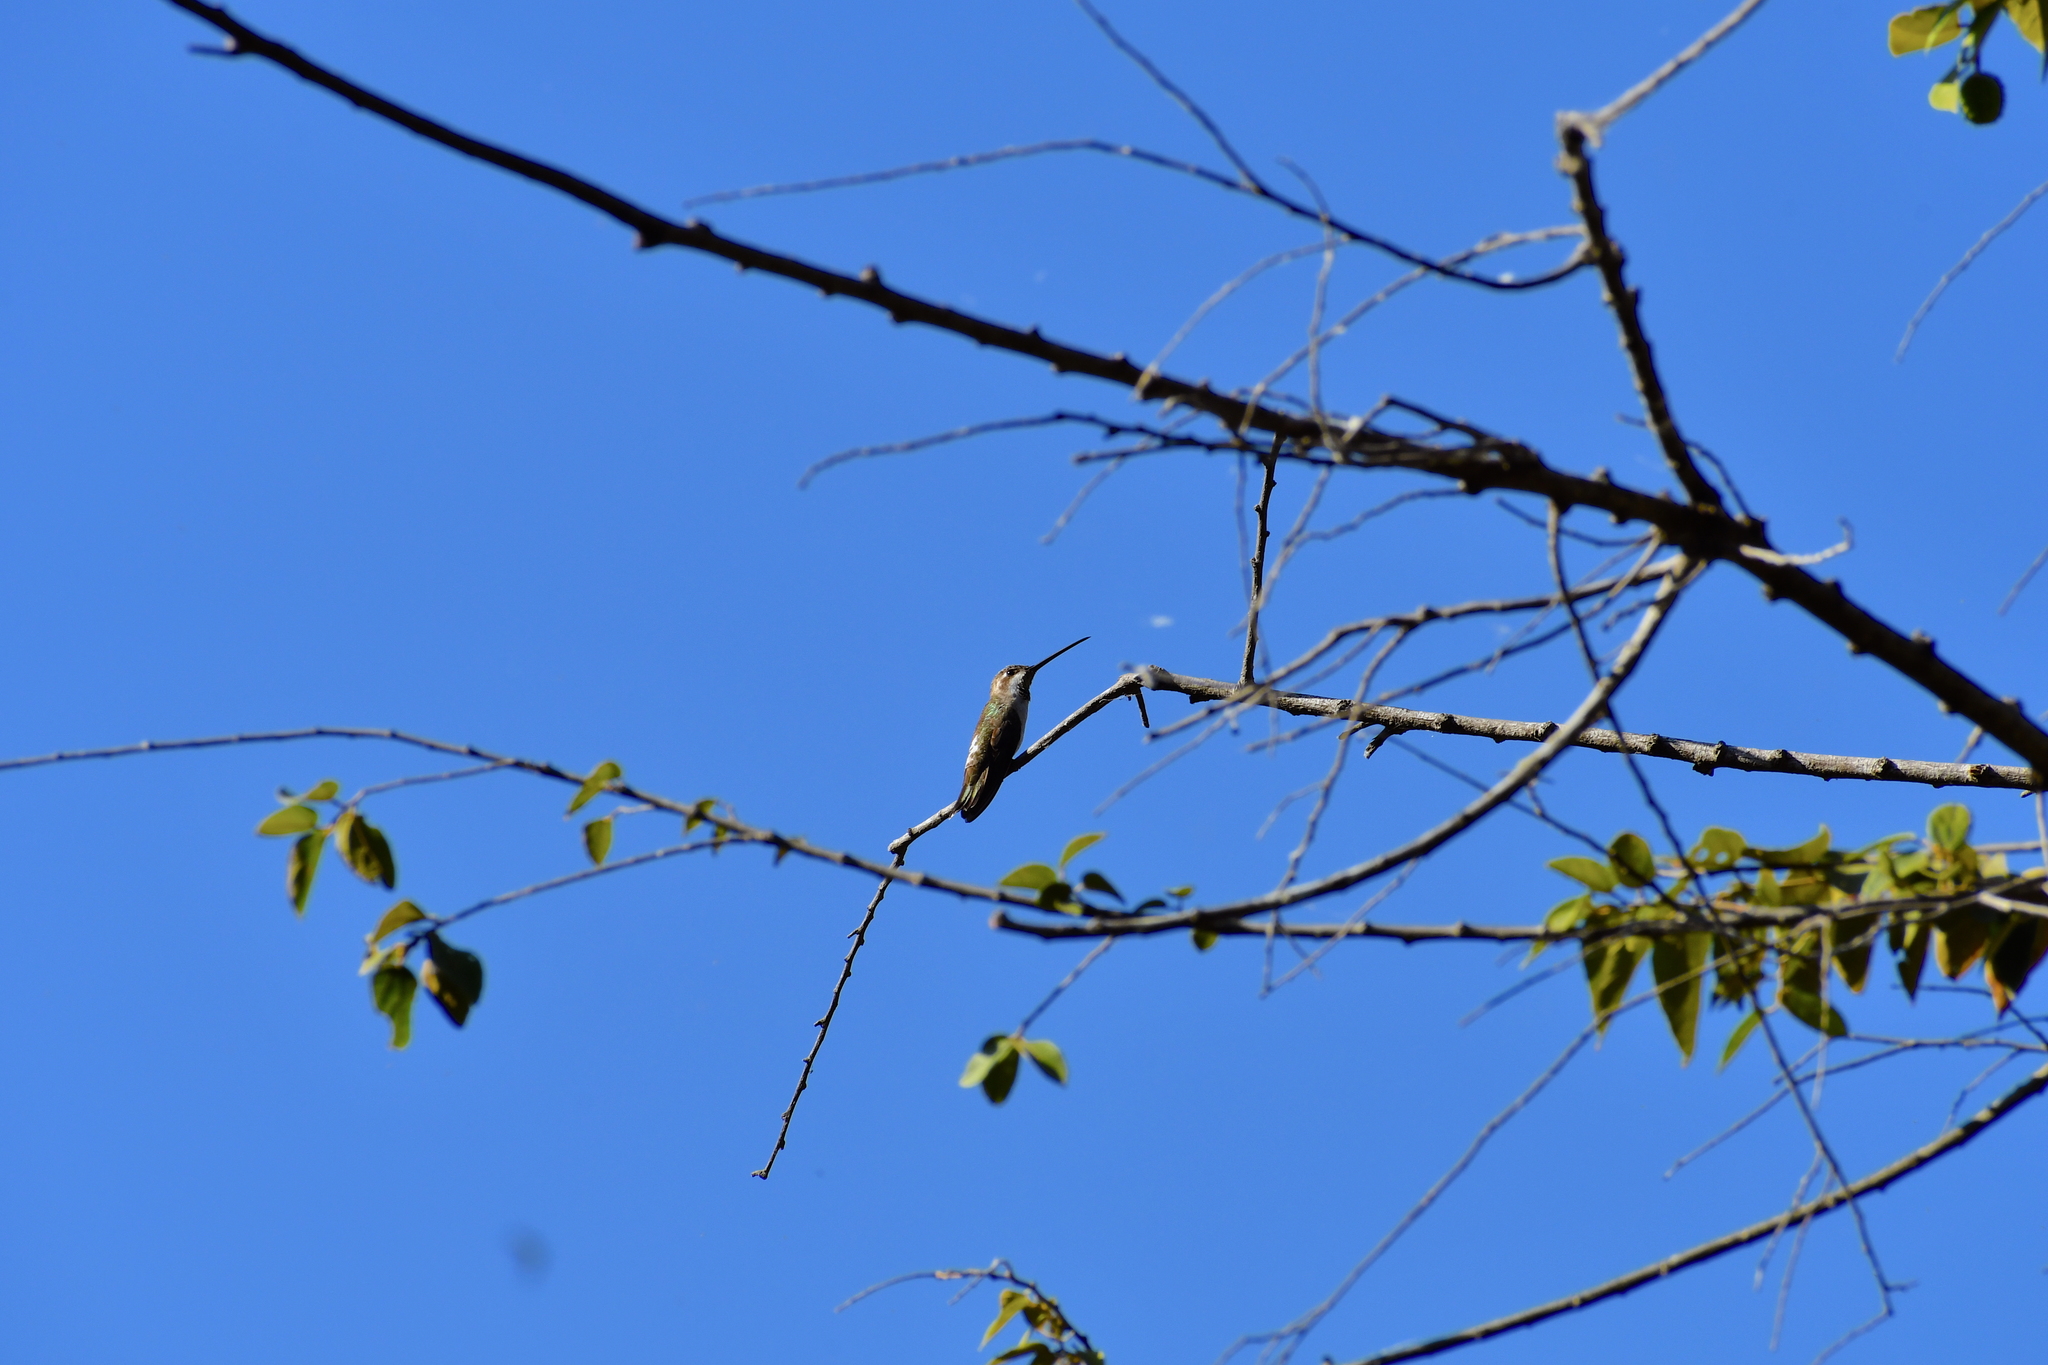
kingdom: Animalia
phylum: Chordata
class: Aves
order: Apodiformes
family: Trochilidae
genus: Heliomaster
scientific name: Heliomaster constantii
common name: Plain-capped starthroat
